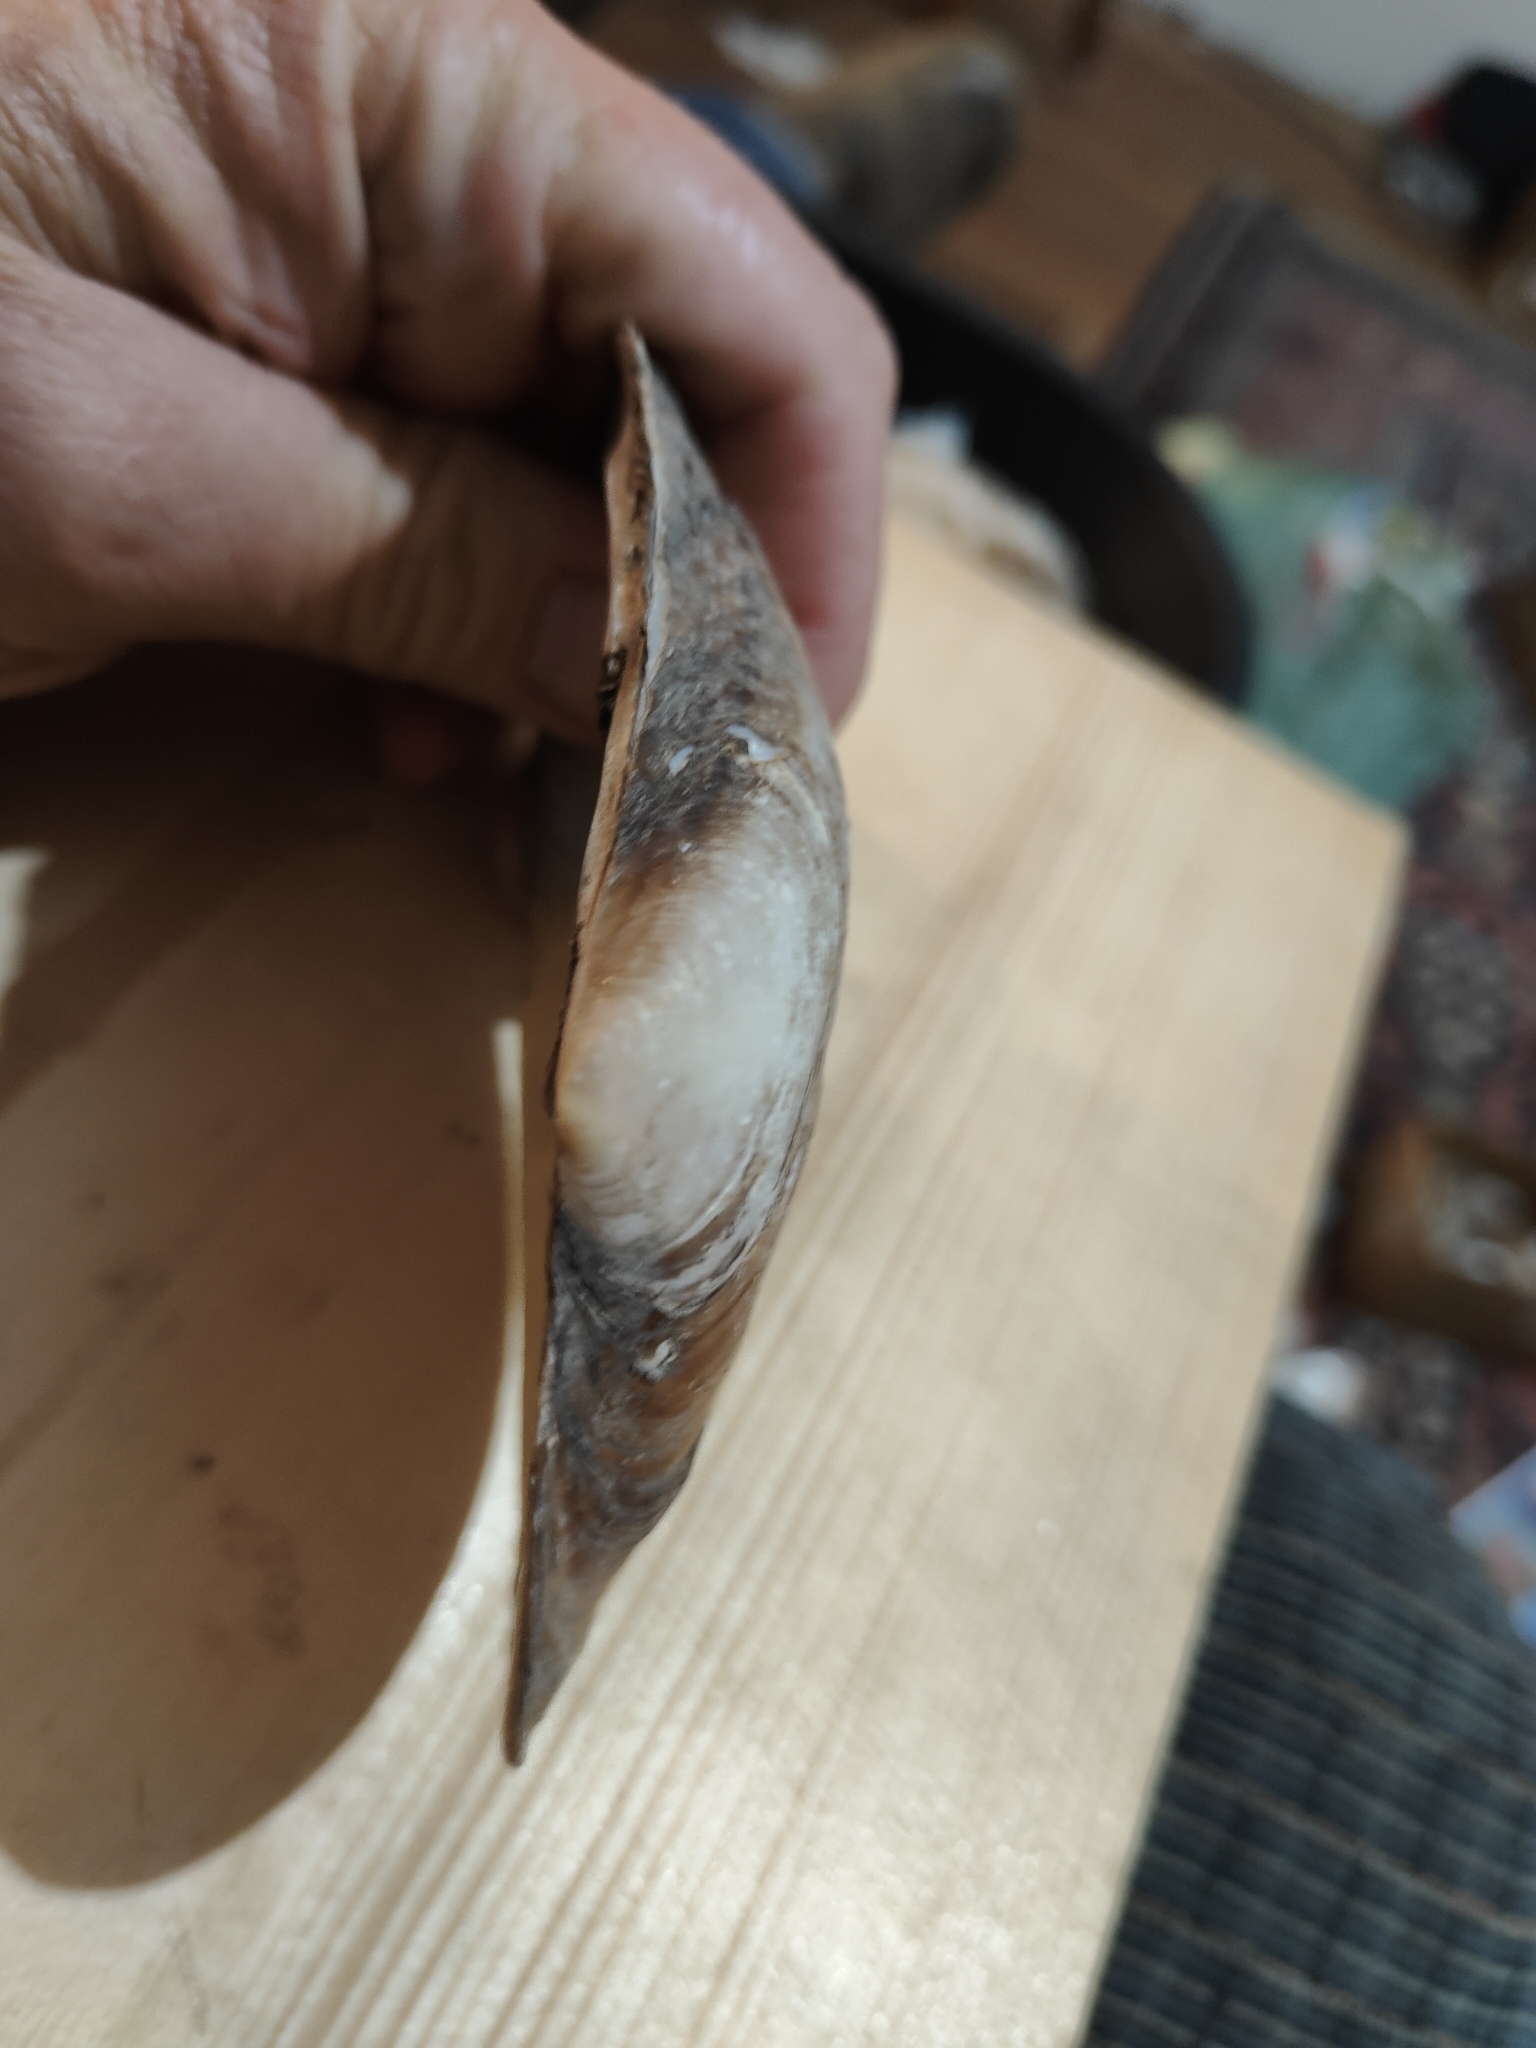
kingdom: Animalia
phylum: Mollusca
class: Bivalvia
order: Unionida
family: Unionidae
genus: Potamilus
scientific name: Potamilus fragilis
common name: Fragile papershell
